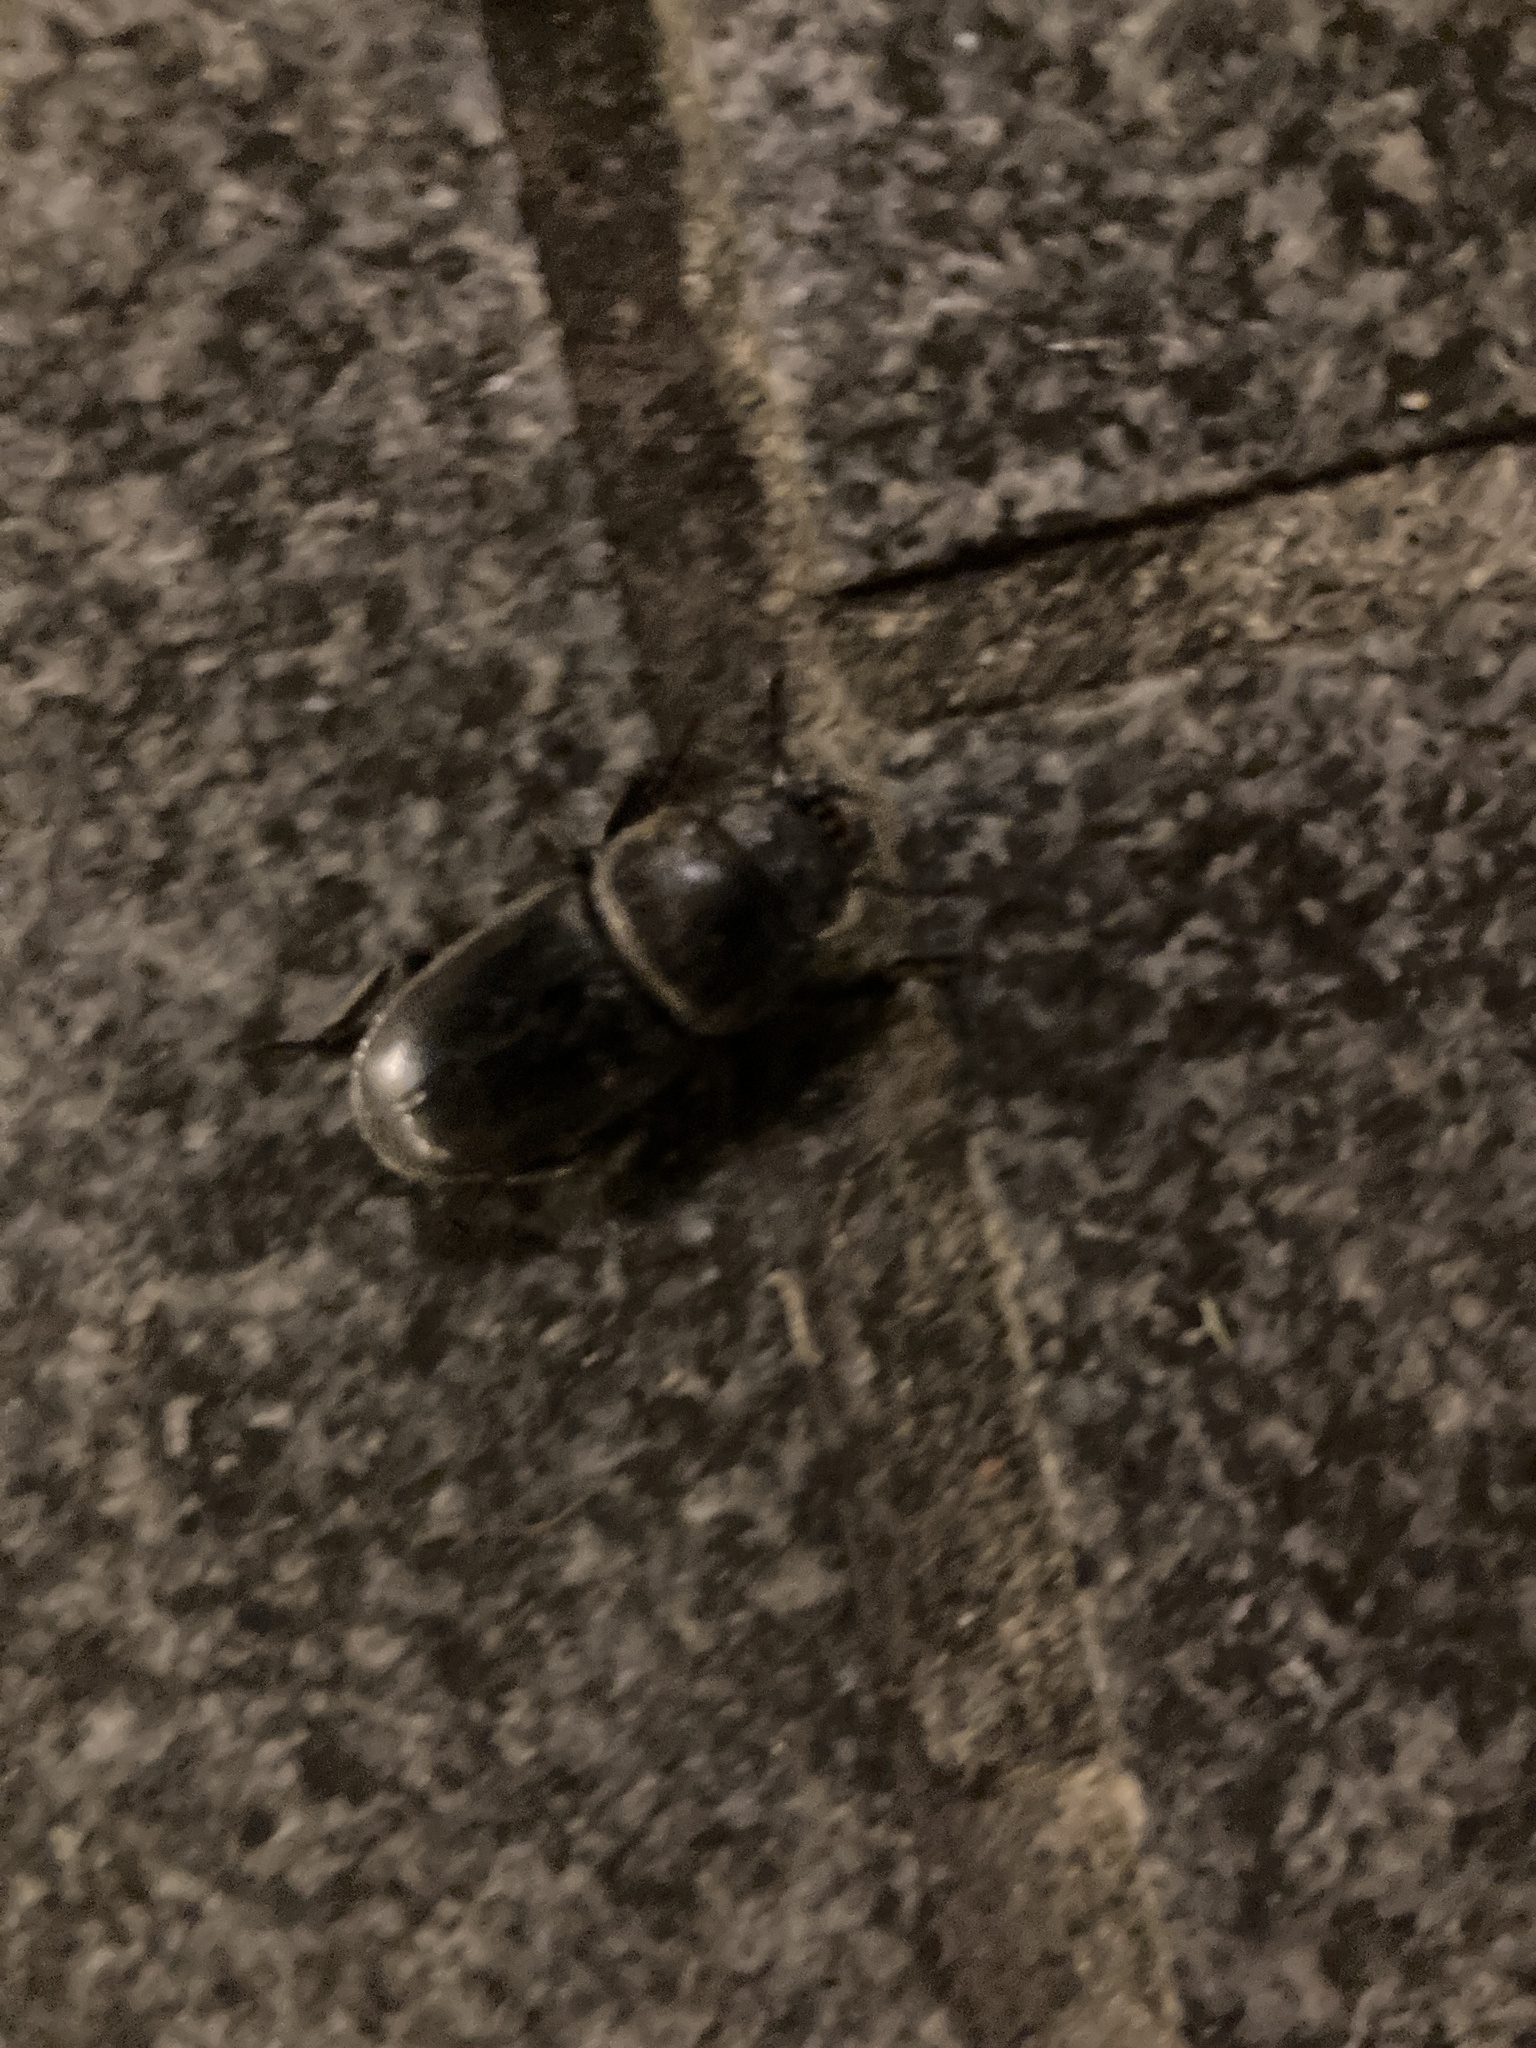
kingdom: Animalia
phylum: Arthropoda
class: Insecta
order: Coleoptera
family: Lucanidae
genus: Serrognathus
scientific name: Serrognathus titanus
